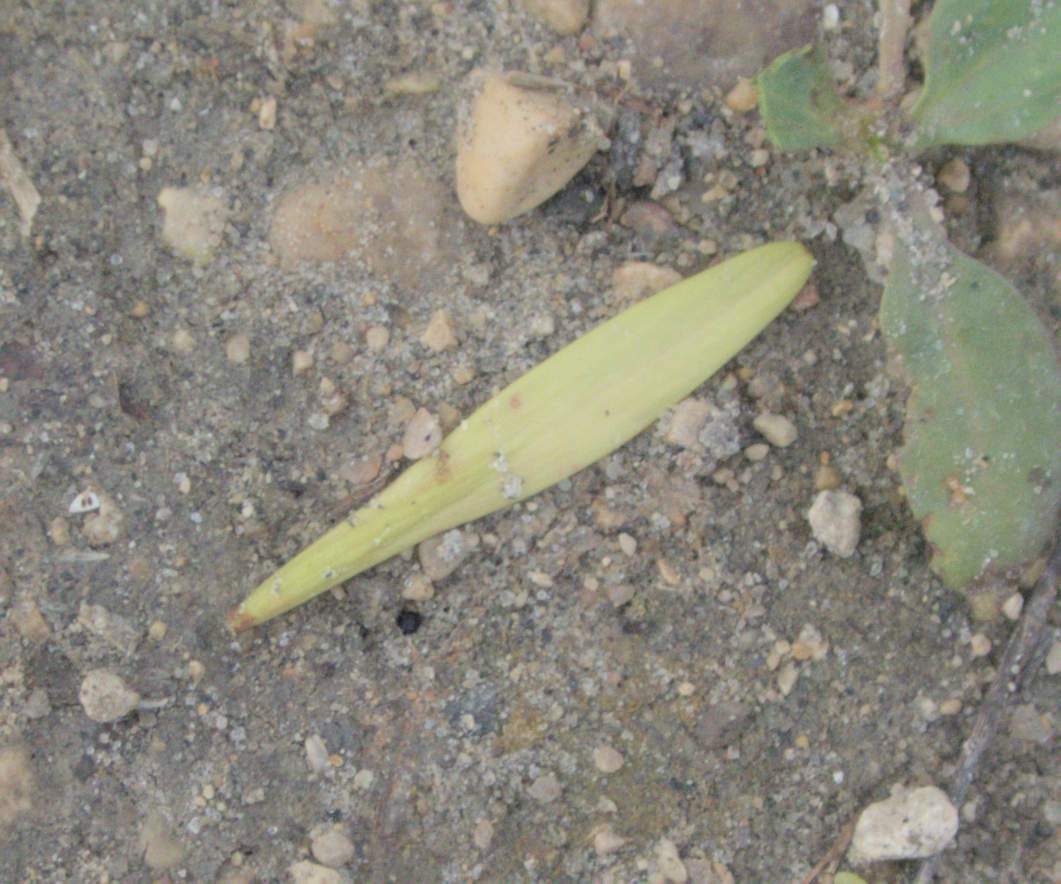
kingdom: Plantae
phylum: Tracheophyta
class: Magnoliopsida
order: Lamiales
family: Oleaceae
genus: Fraxinus
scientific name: Fraxinus pennsylvanica
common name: Green ash
